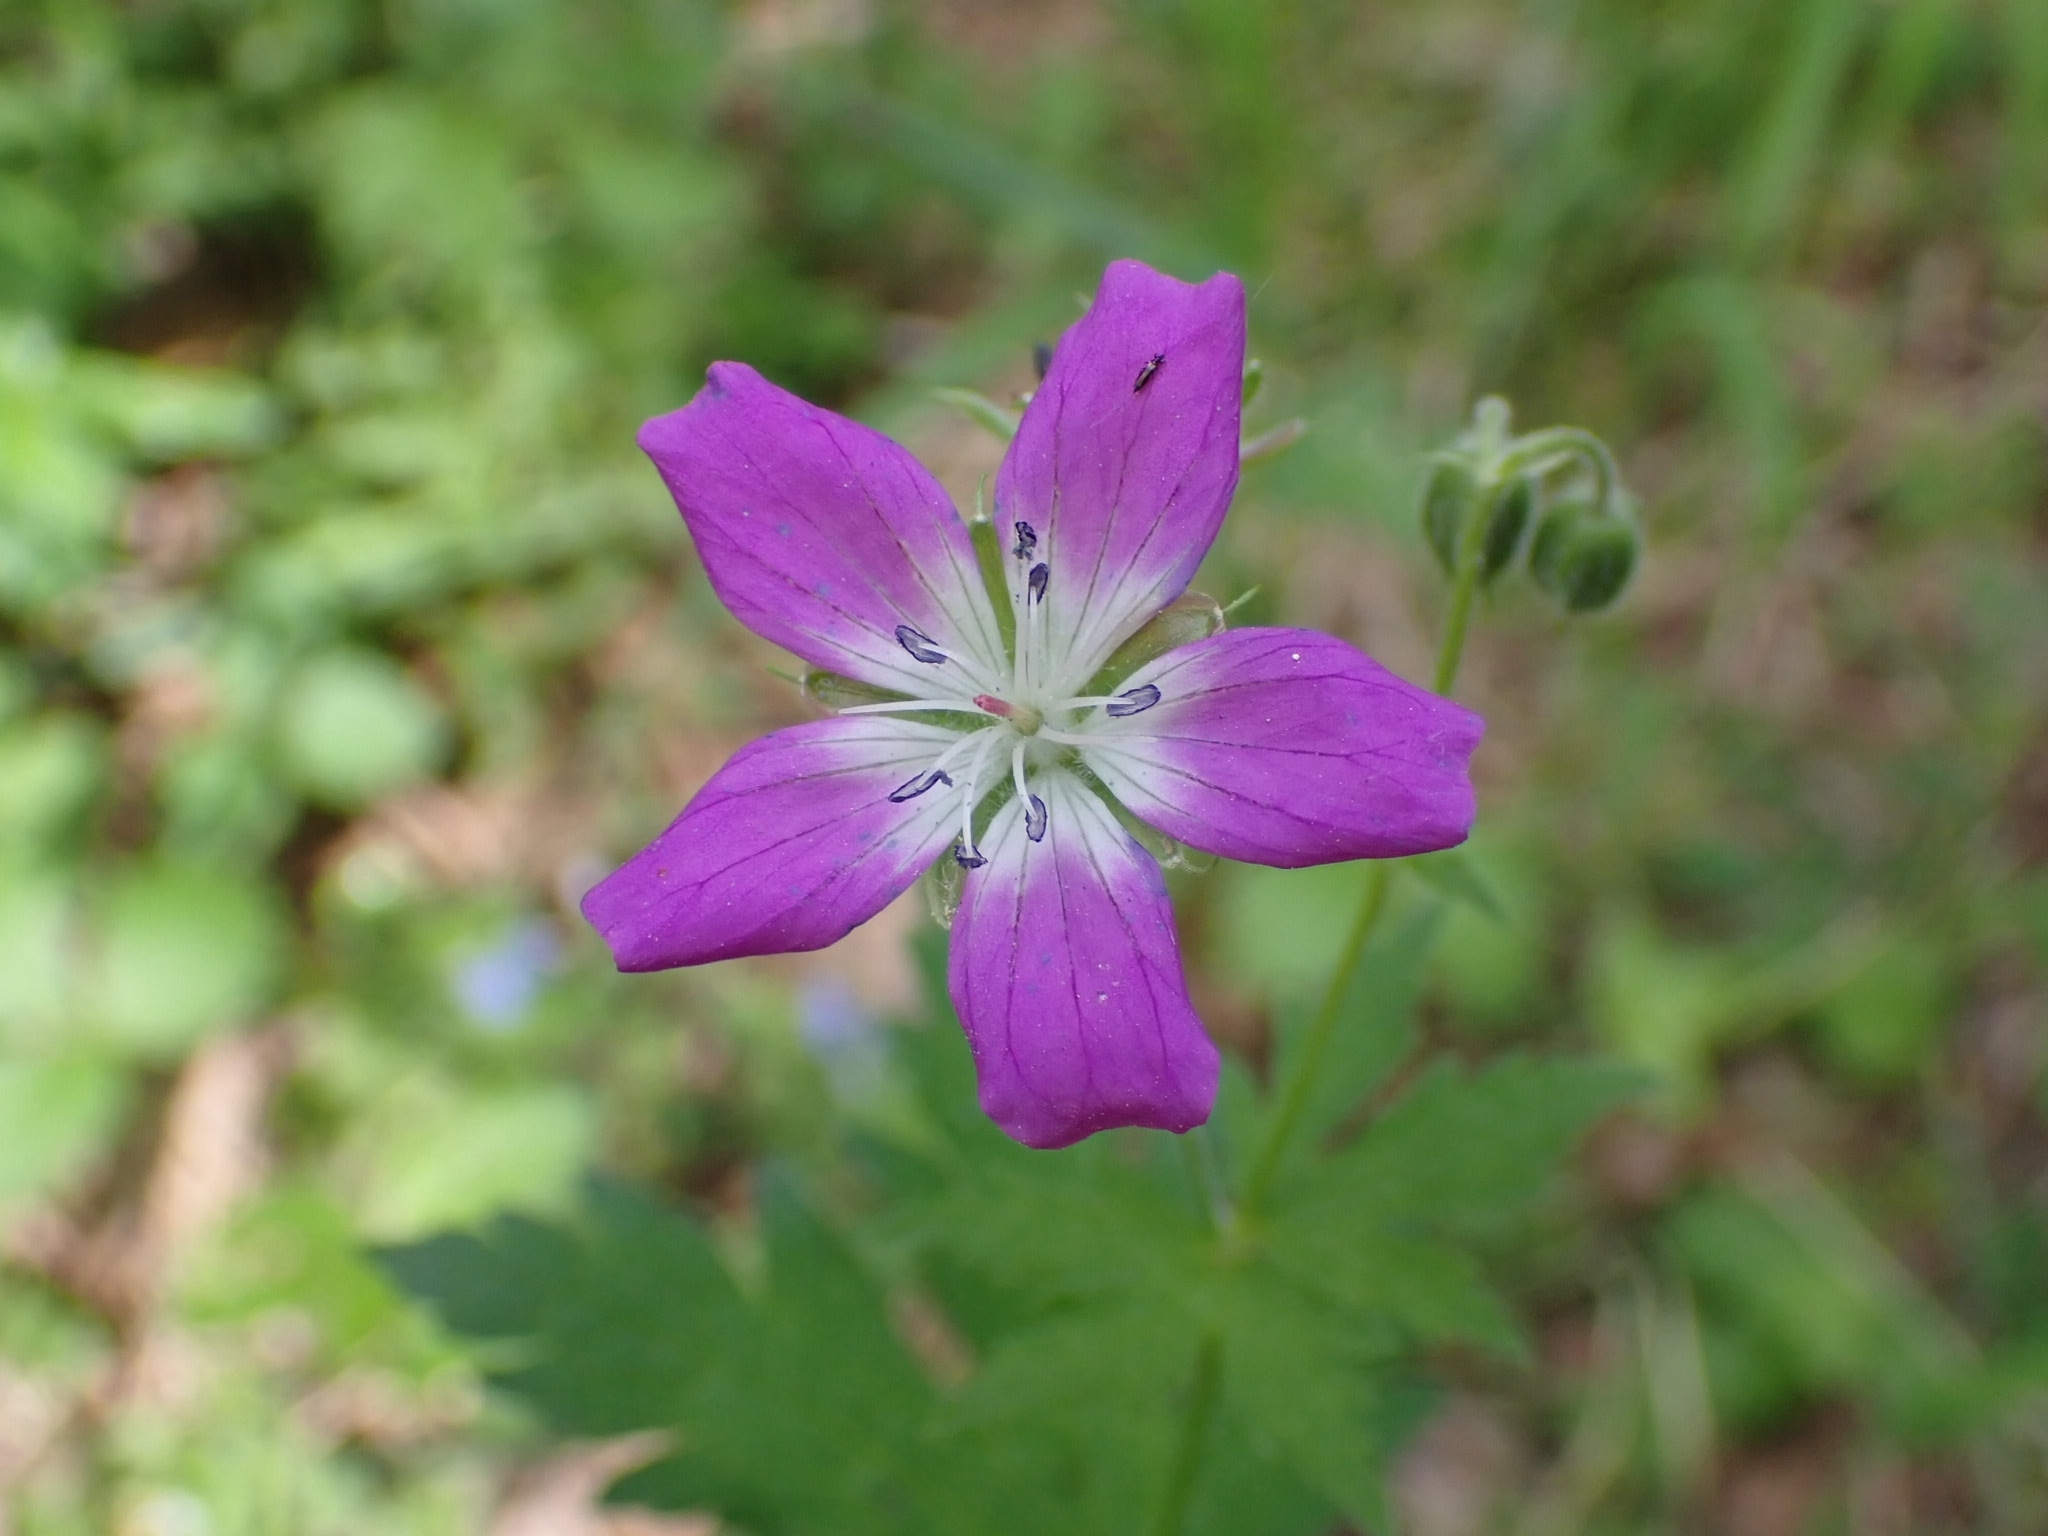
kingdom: Plantae
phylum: Tracheophyta
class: Magnoliopsida
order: Geraniales
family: Geraniaceae
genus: Geranium
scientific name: Geranium sylvaticum
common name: Wood crane's-bill
